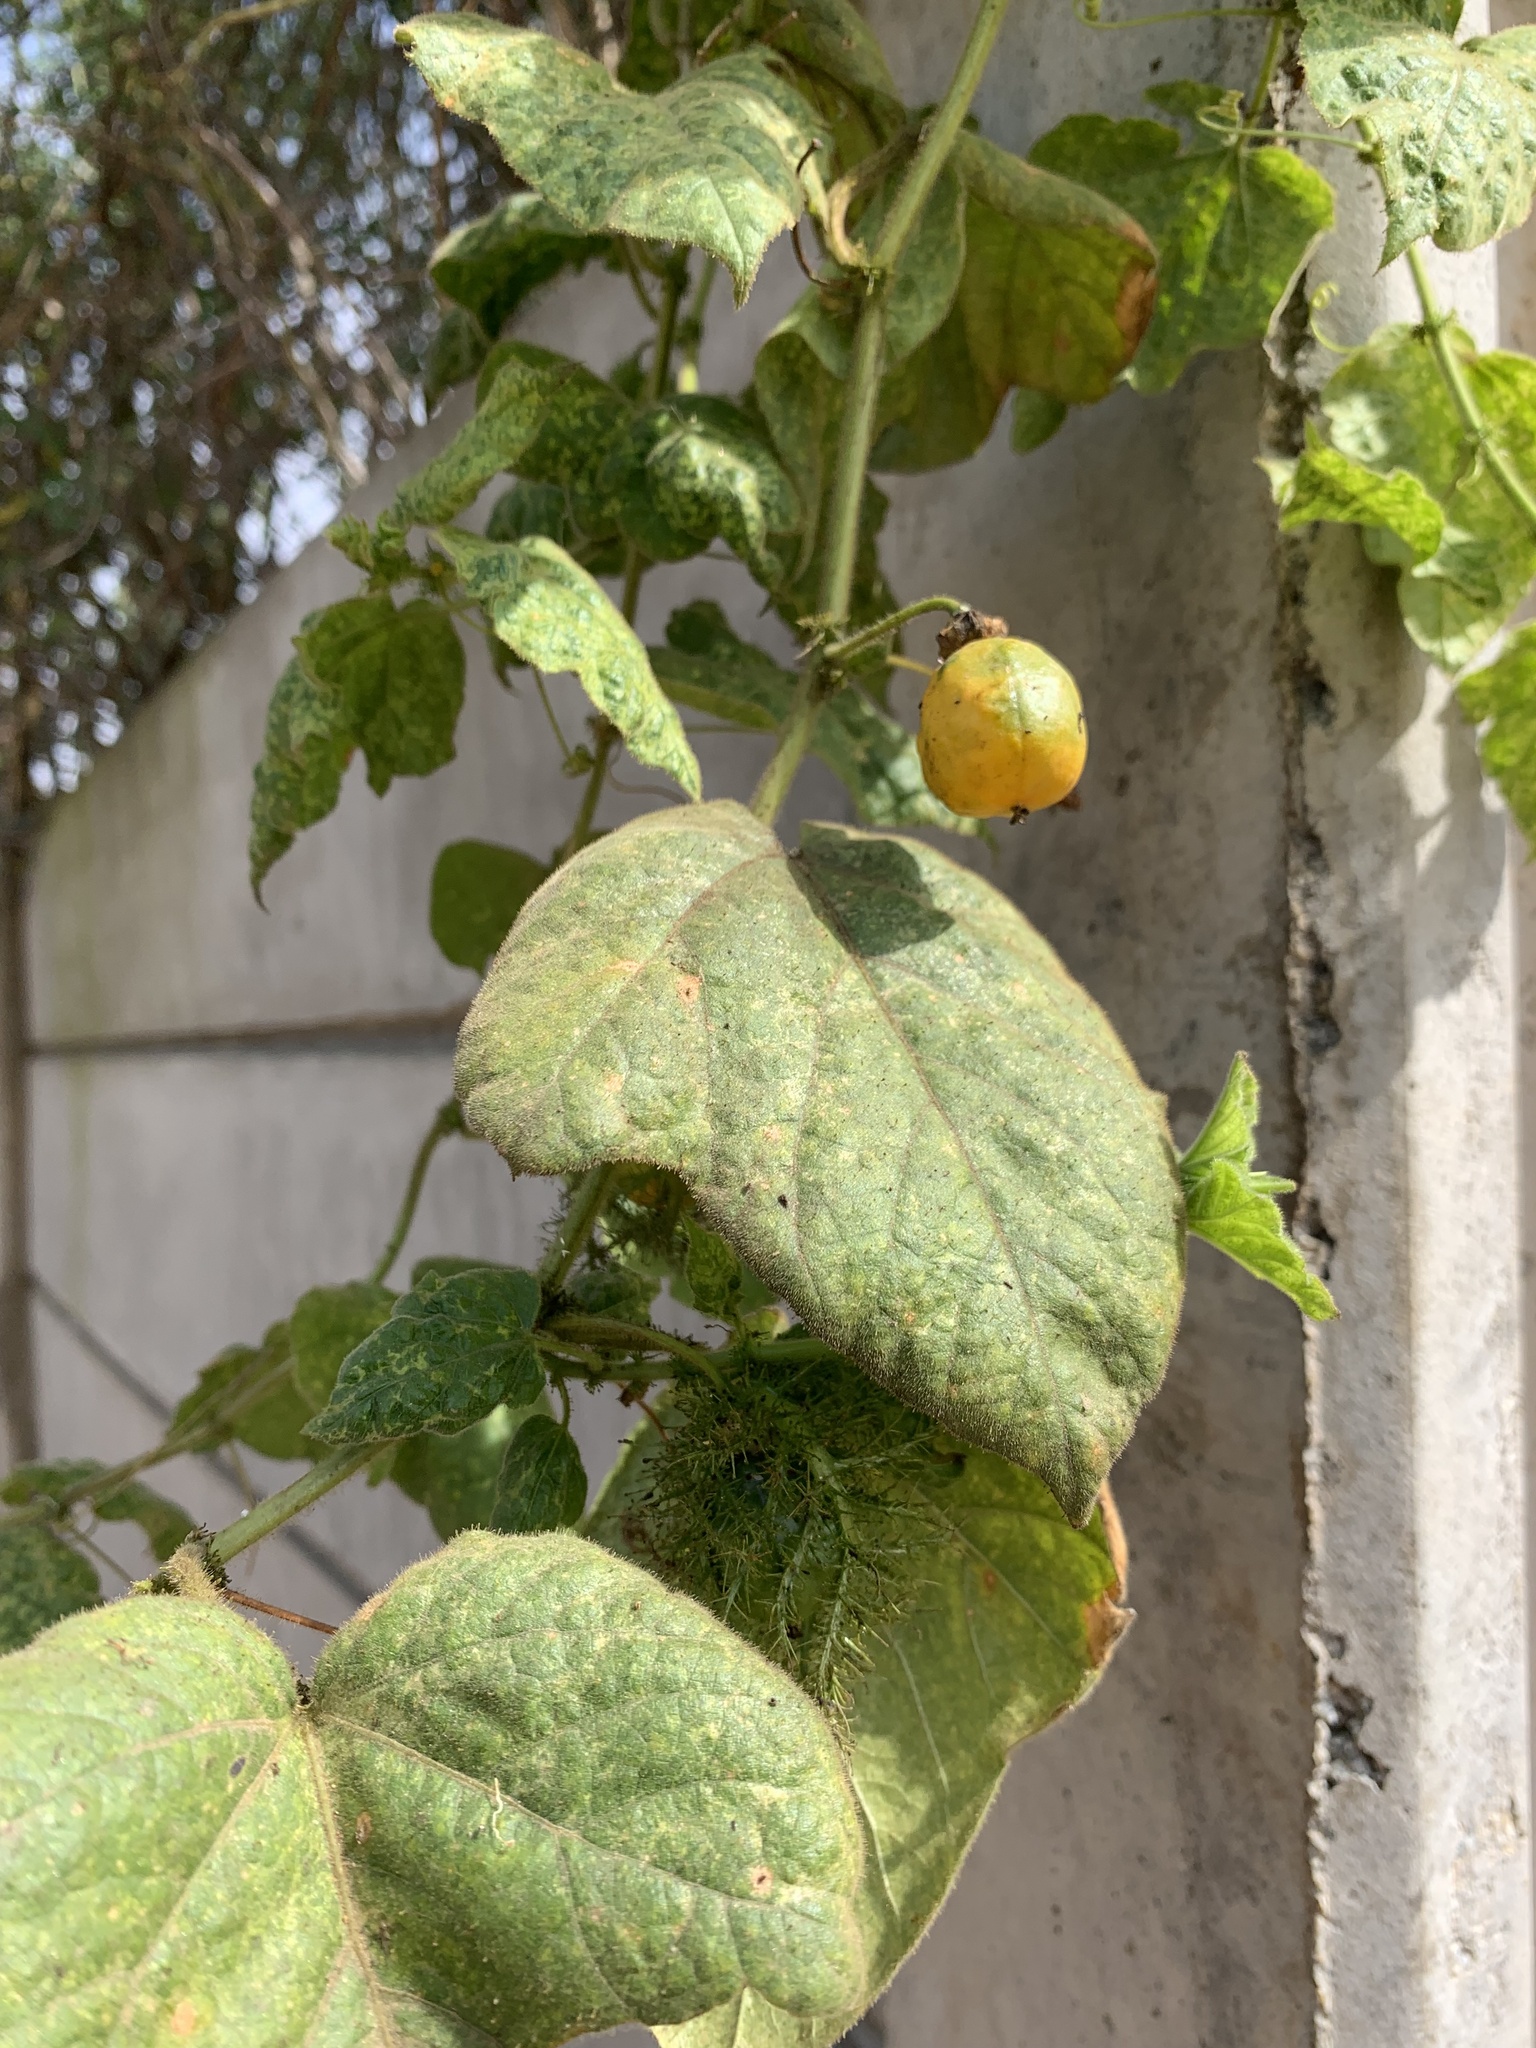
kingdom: Plantae
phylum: Tracheophyta
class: Magnoliopsida
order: Malpighiales
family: Passifloraceae
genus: Passiflora
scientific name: Passiflora foetida
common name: Fetid passionflower
